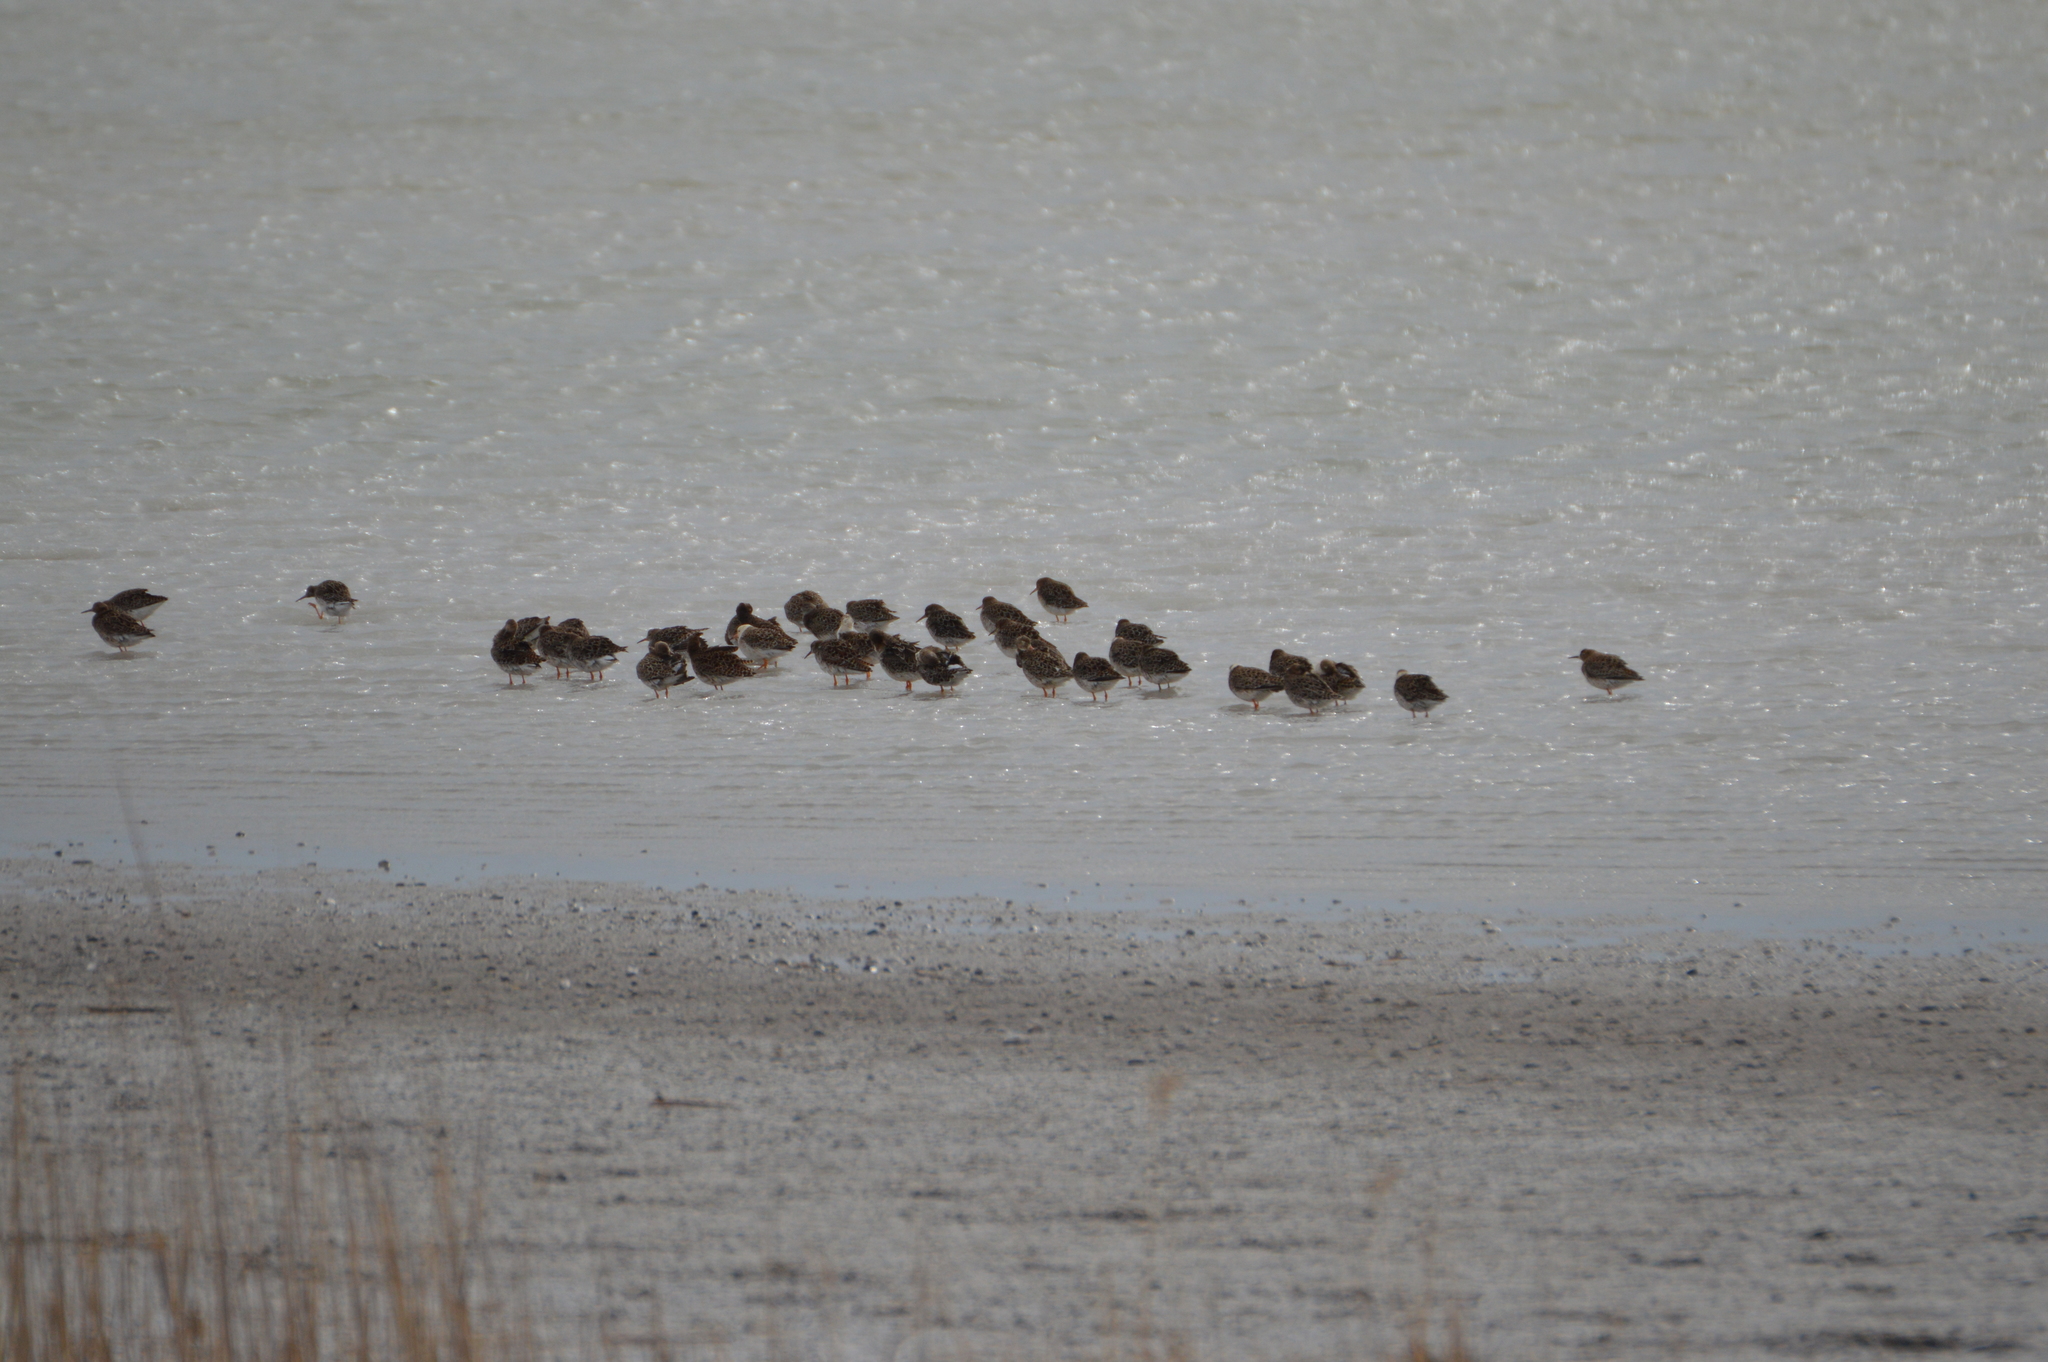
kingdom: Animalia
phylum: Chordata
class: Aves
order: Charadriiformes
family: Scolopacidae
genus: Calidris
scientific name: Calidris pugnax
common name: Ruff
